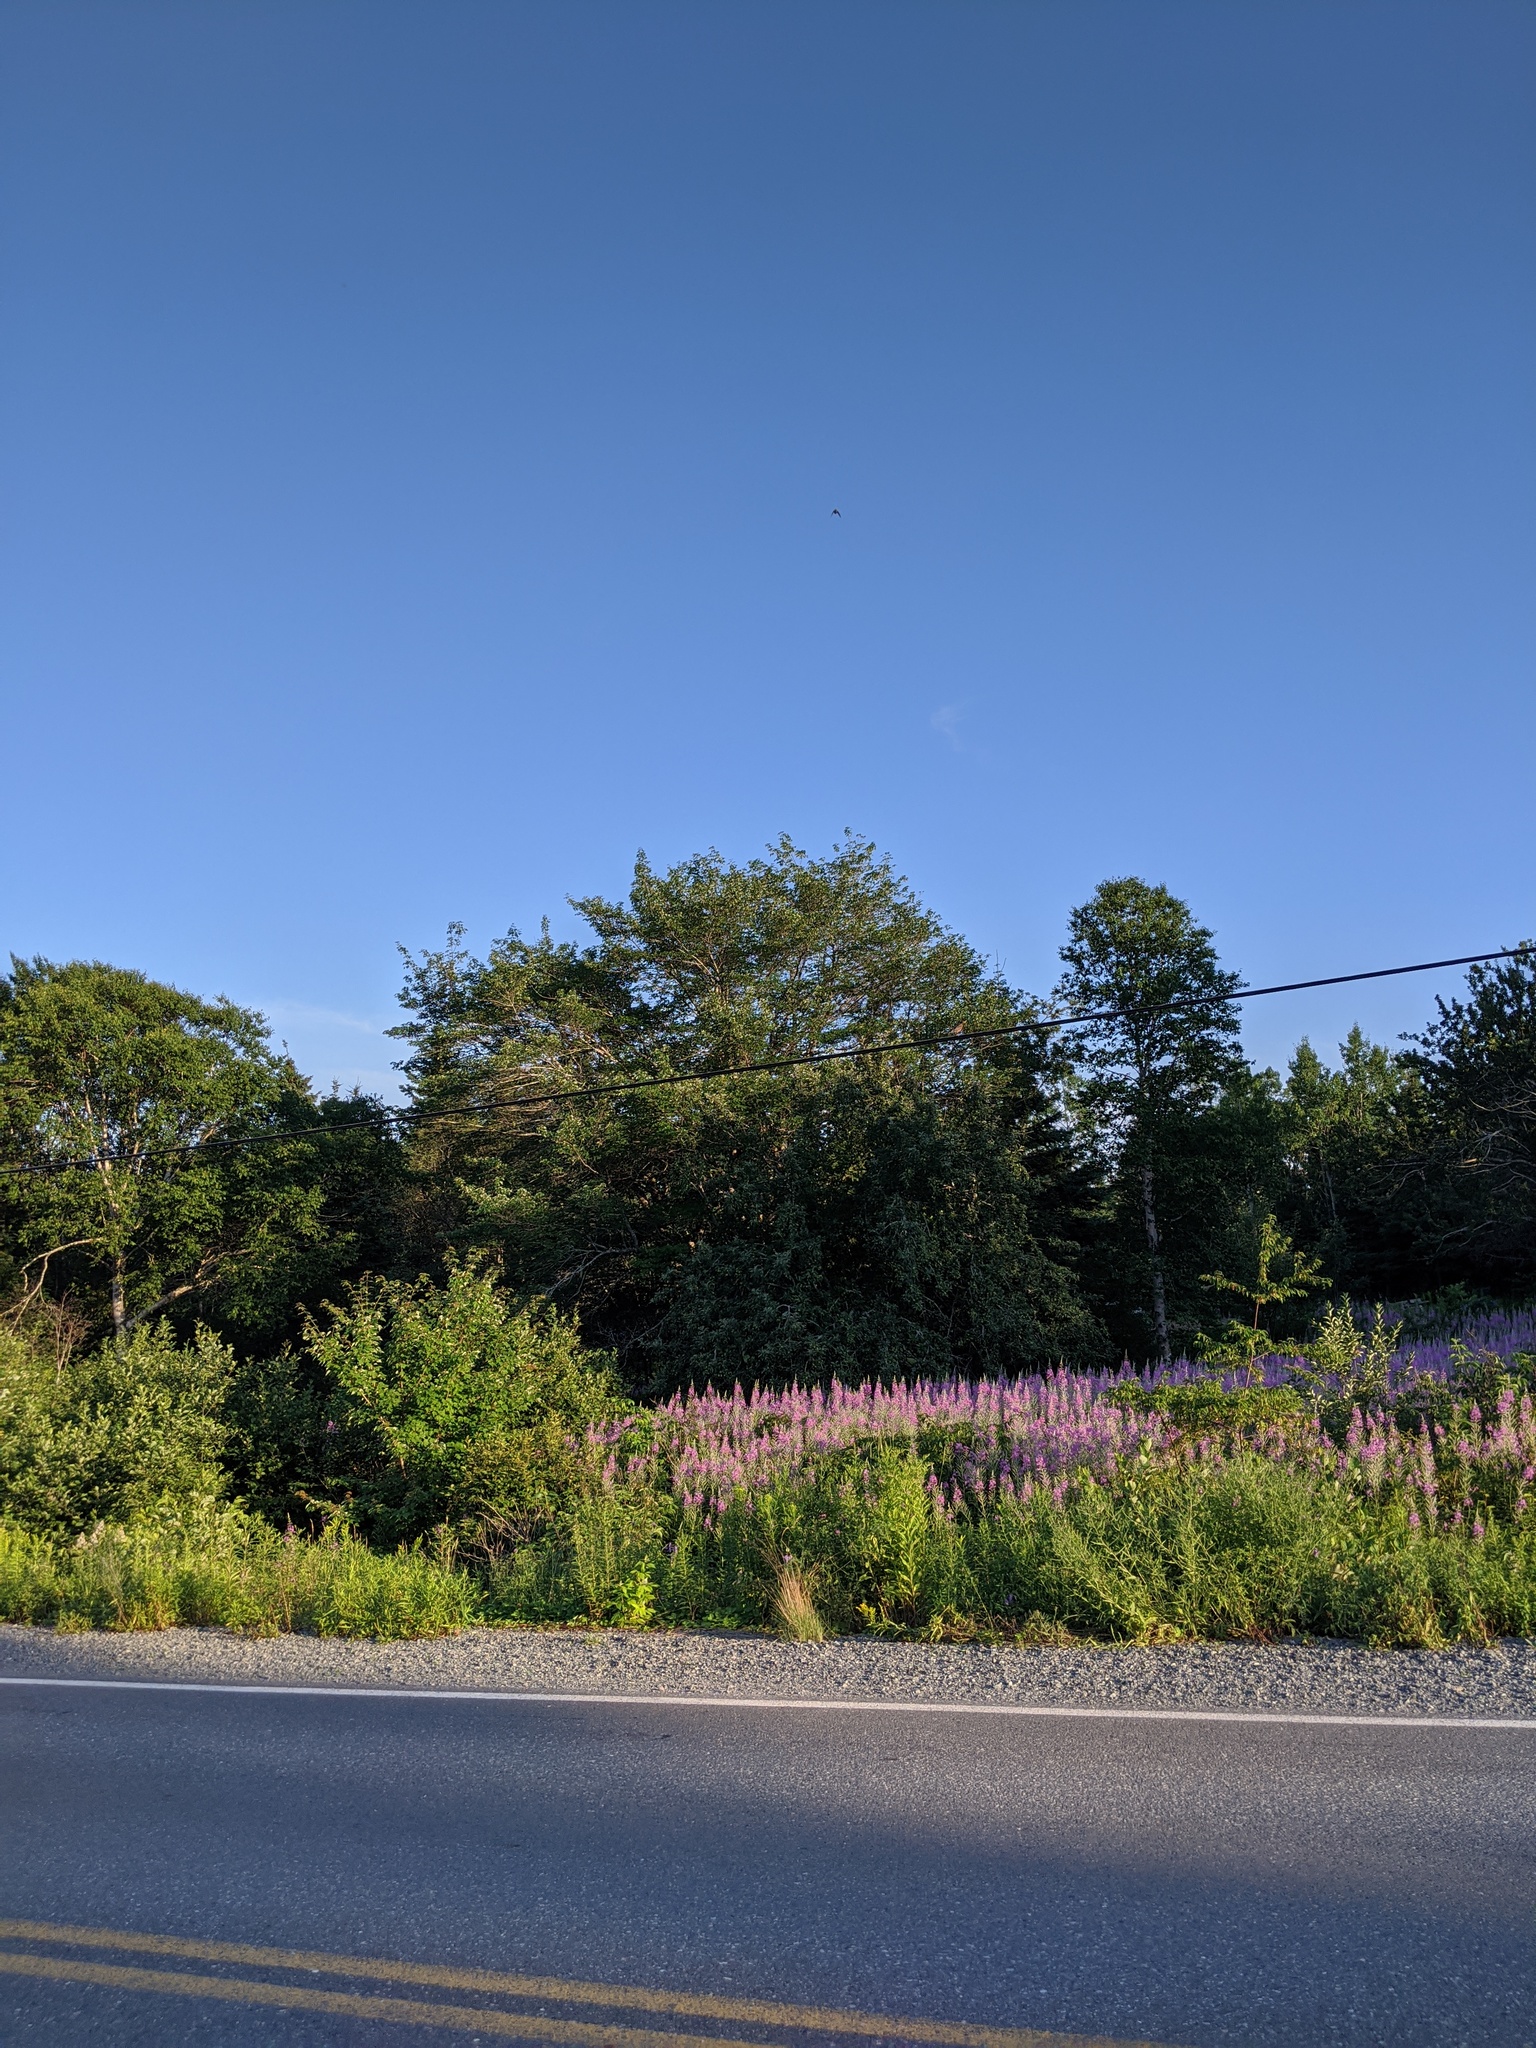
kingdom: Plantae
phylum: Tracheophyta
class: Magnoliopsida
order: Myrtales
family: Onagraceae
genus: Chamaenerion
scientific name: Chamaenerion angustifolium
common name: Fireweed
